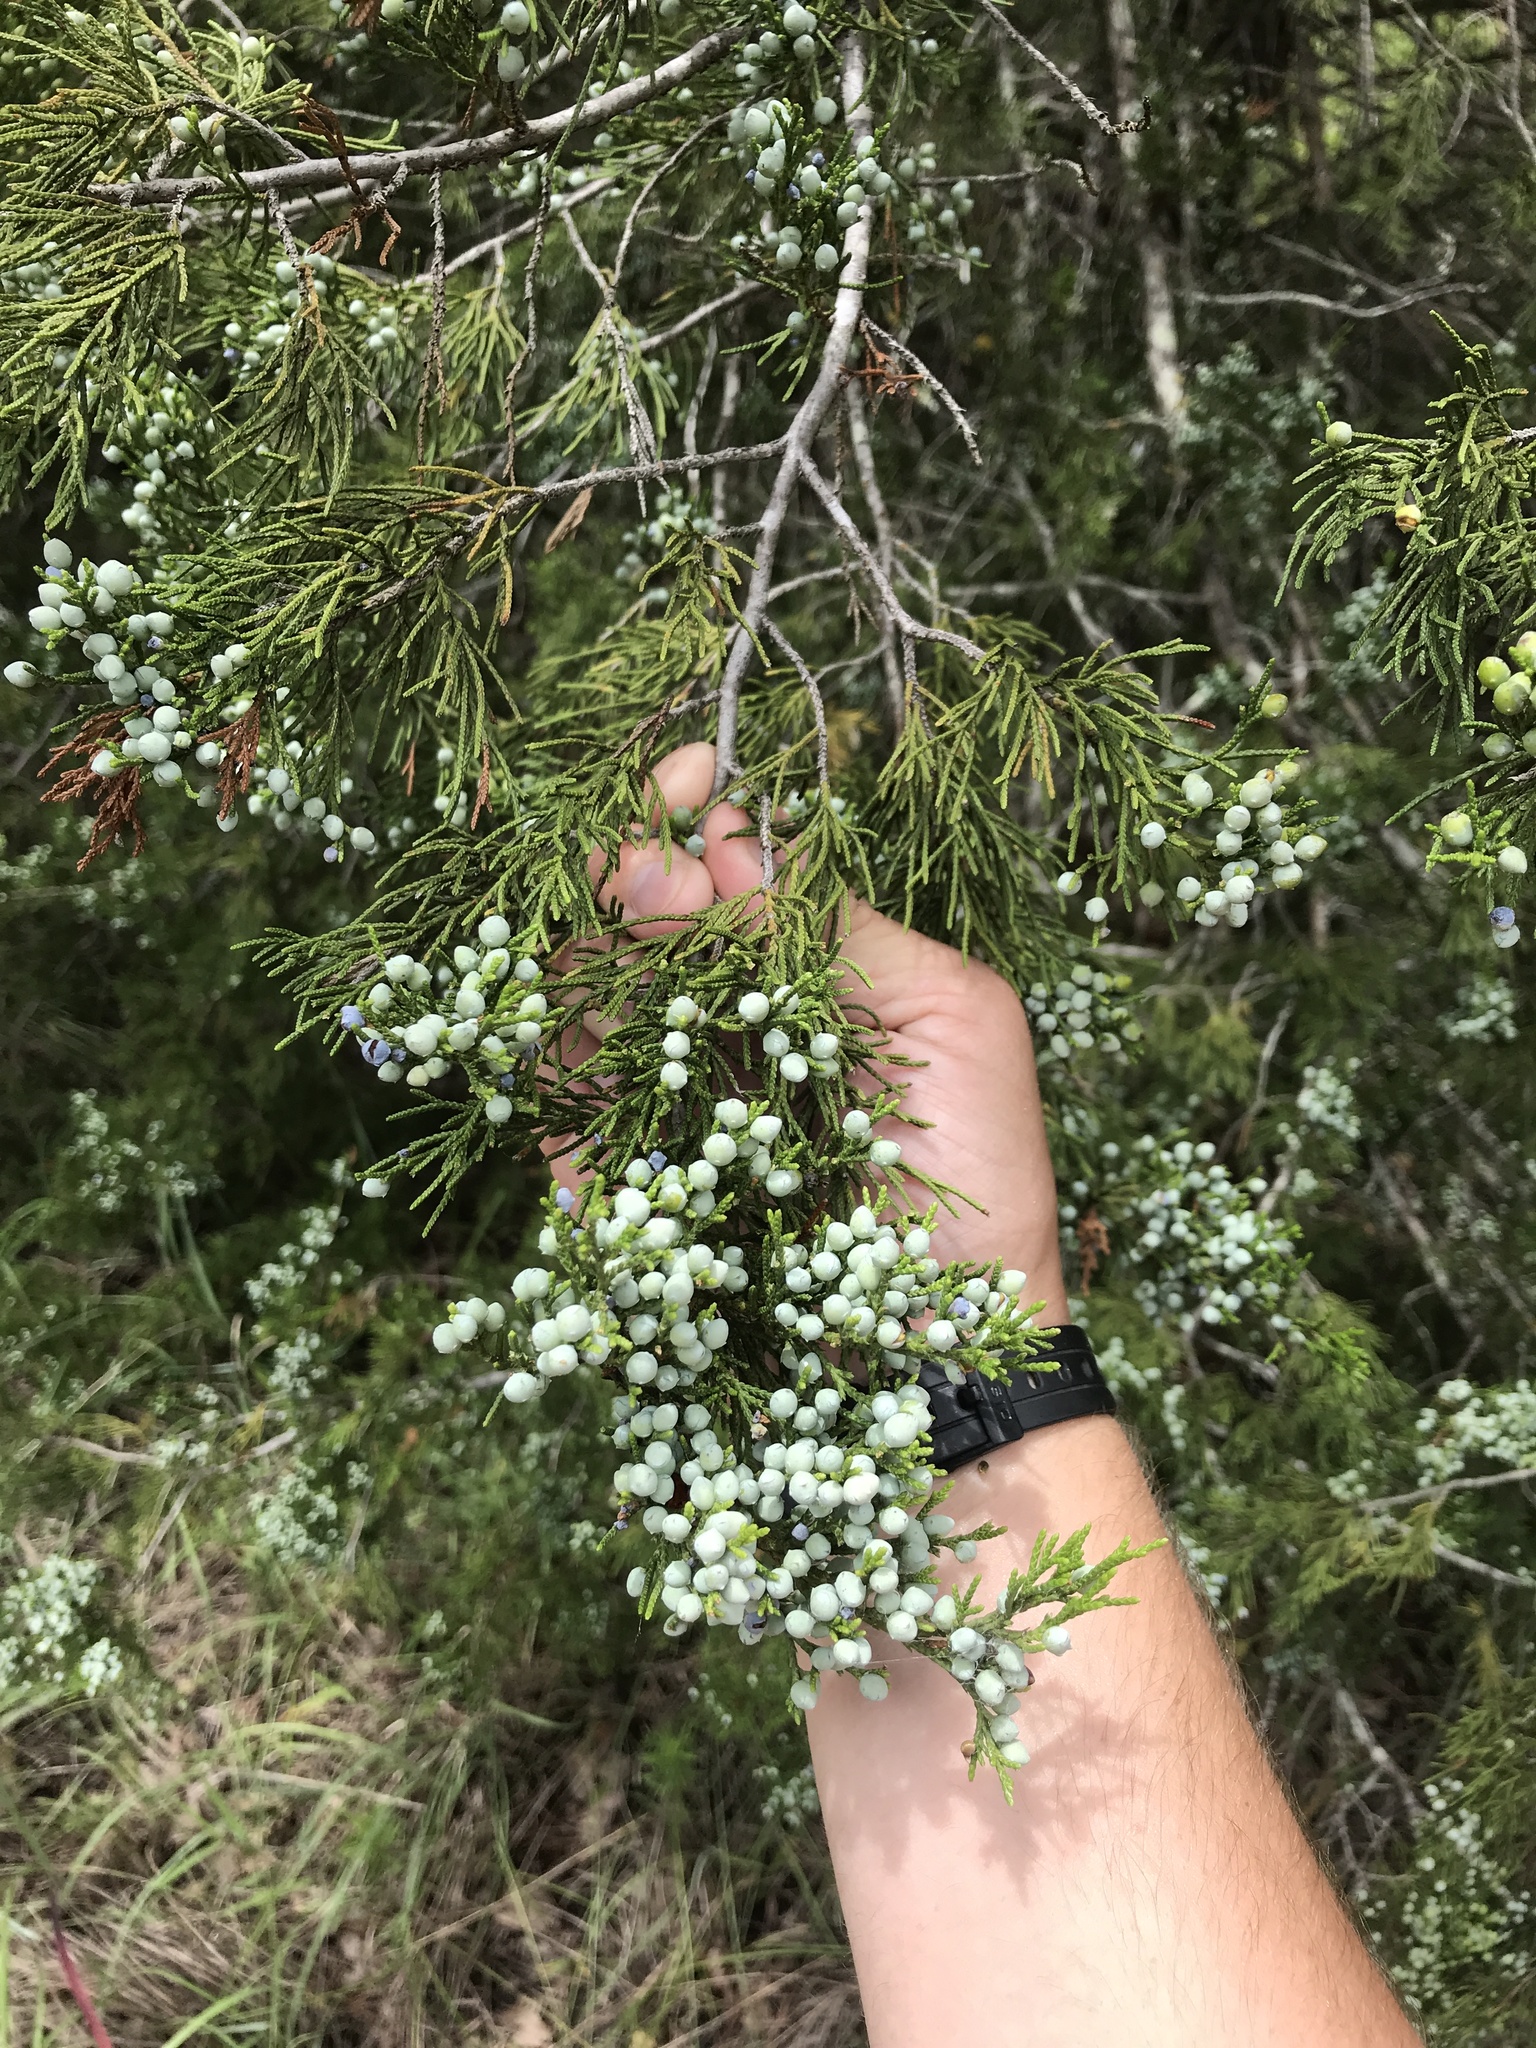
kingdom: Plantae
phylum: Tracheophyta
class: Pinopsida
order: Pinales
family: Cupressaceae
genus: Juniperus
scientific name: Juniperus virginiana
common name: Red juniper
